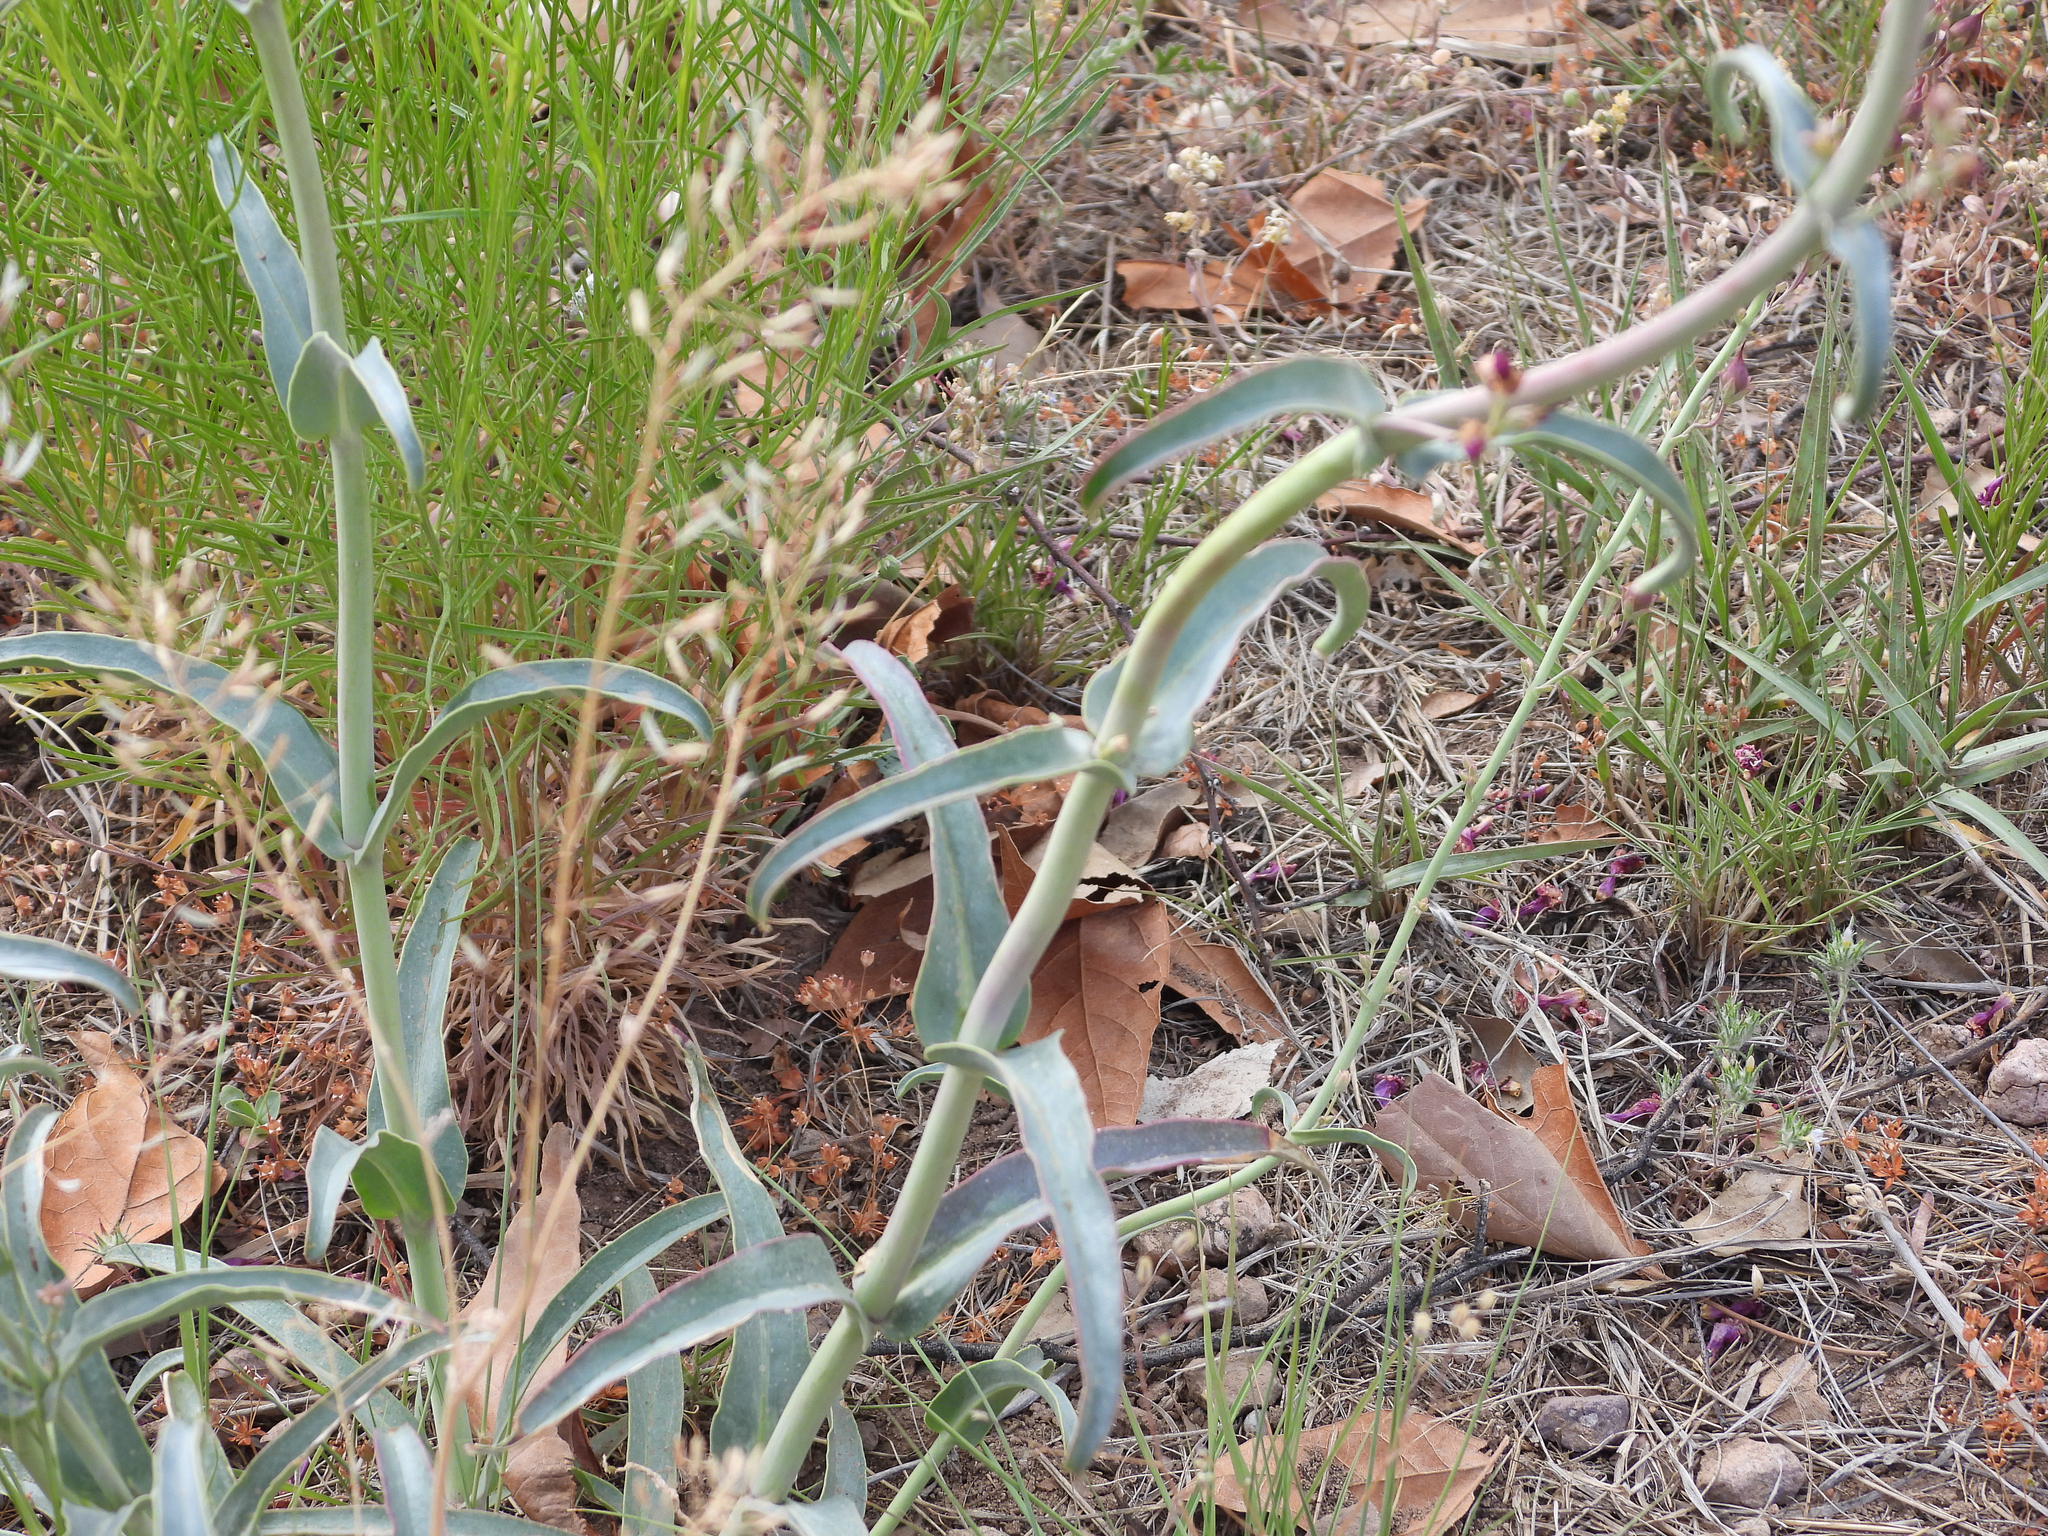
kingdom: Plantae
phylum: Tracheophyta
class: Magnoliopsida
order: Lamiales
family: Plantaginaceae
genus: Penstemon
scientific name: Penstemon parryi
